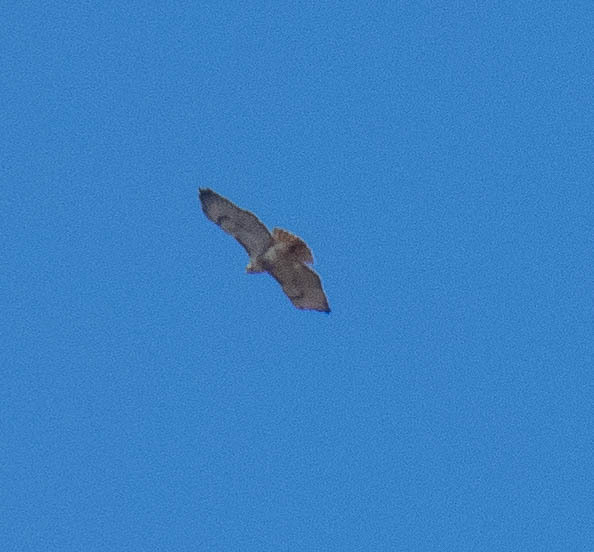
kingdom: Animalia
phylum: Chordata
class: Aves
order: Accipitriformes
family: Accipitridae
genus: Buteo
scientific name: Buteo jamaicensis
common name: Red-tailed hawk
